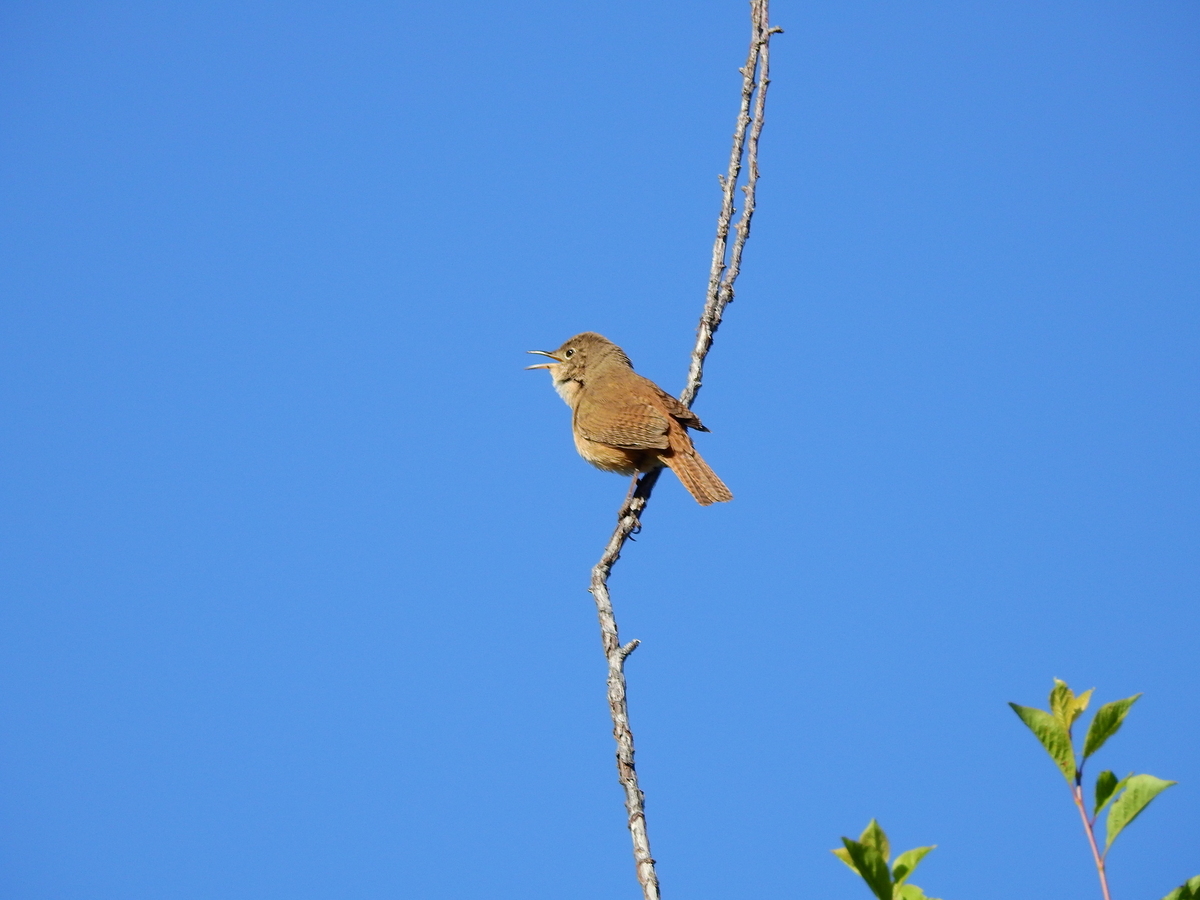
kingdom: Animalia
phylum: Chordata
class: Aves
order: Passeriformes
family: Troglodytidae
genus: Troglodytes
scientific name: Troglodytes aedon
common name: House wren
